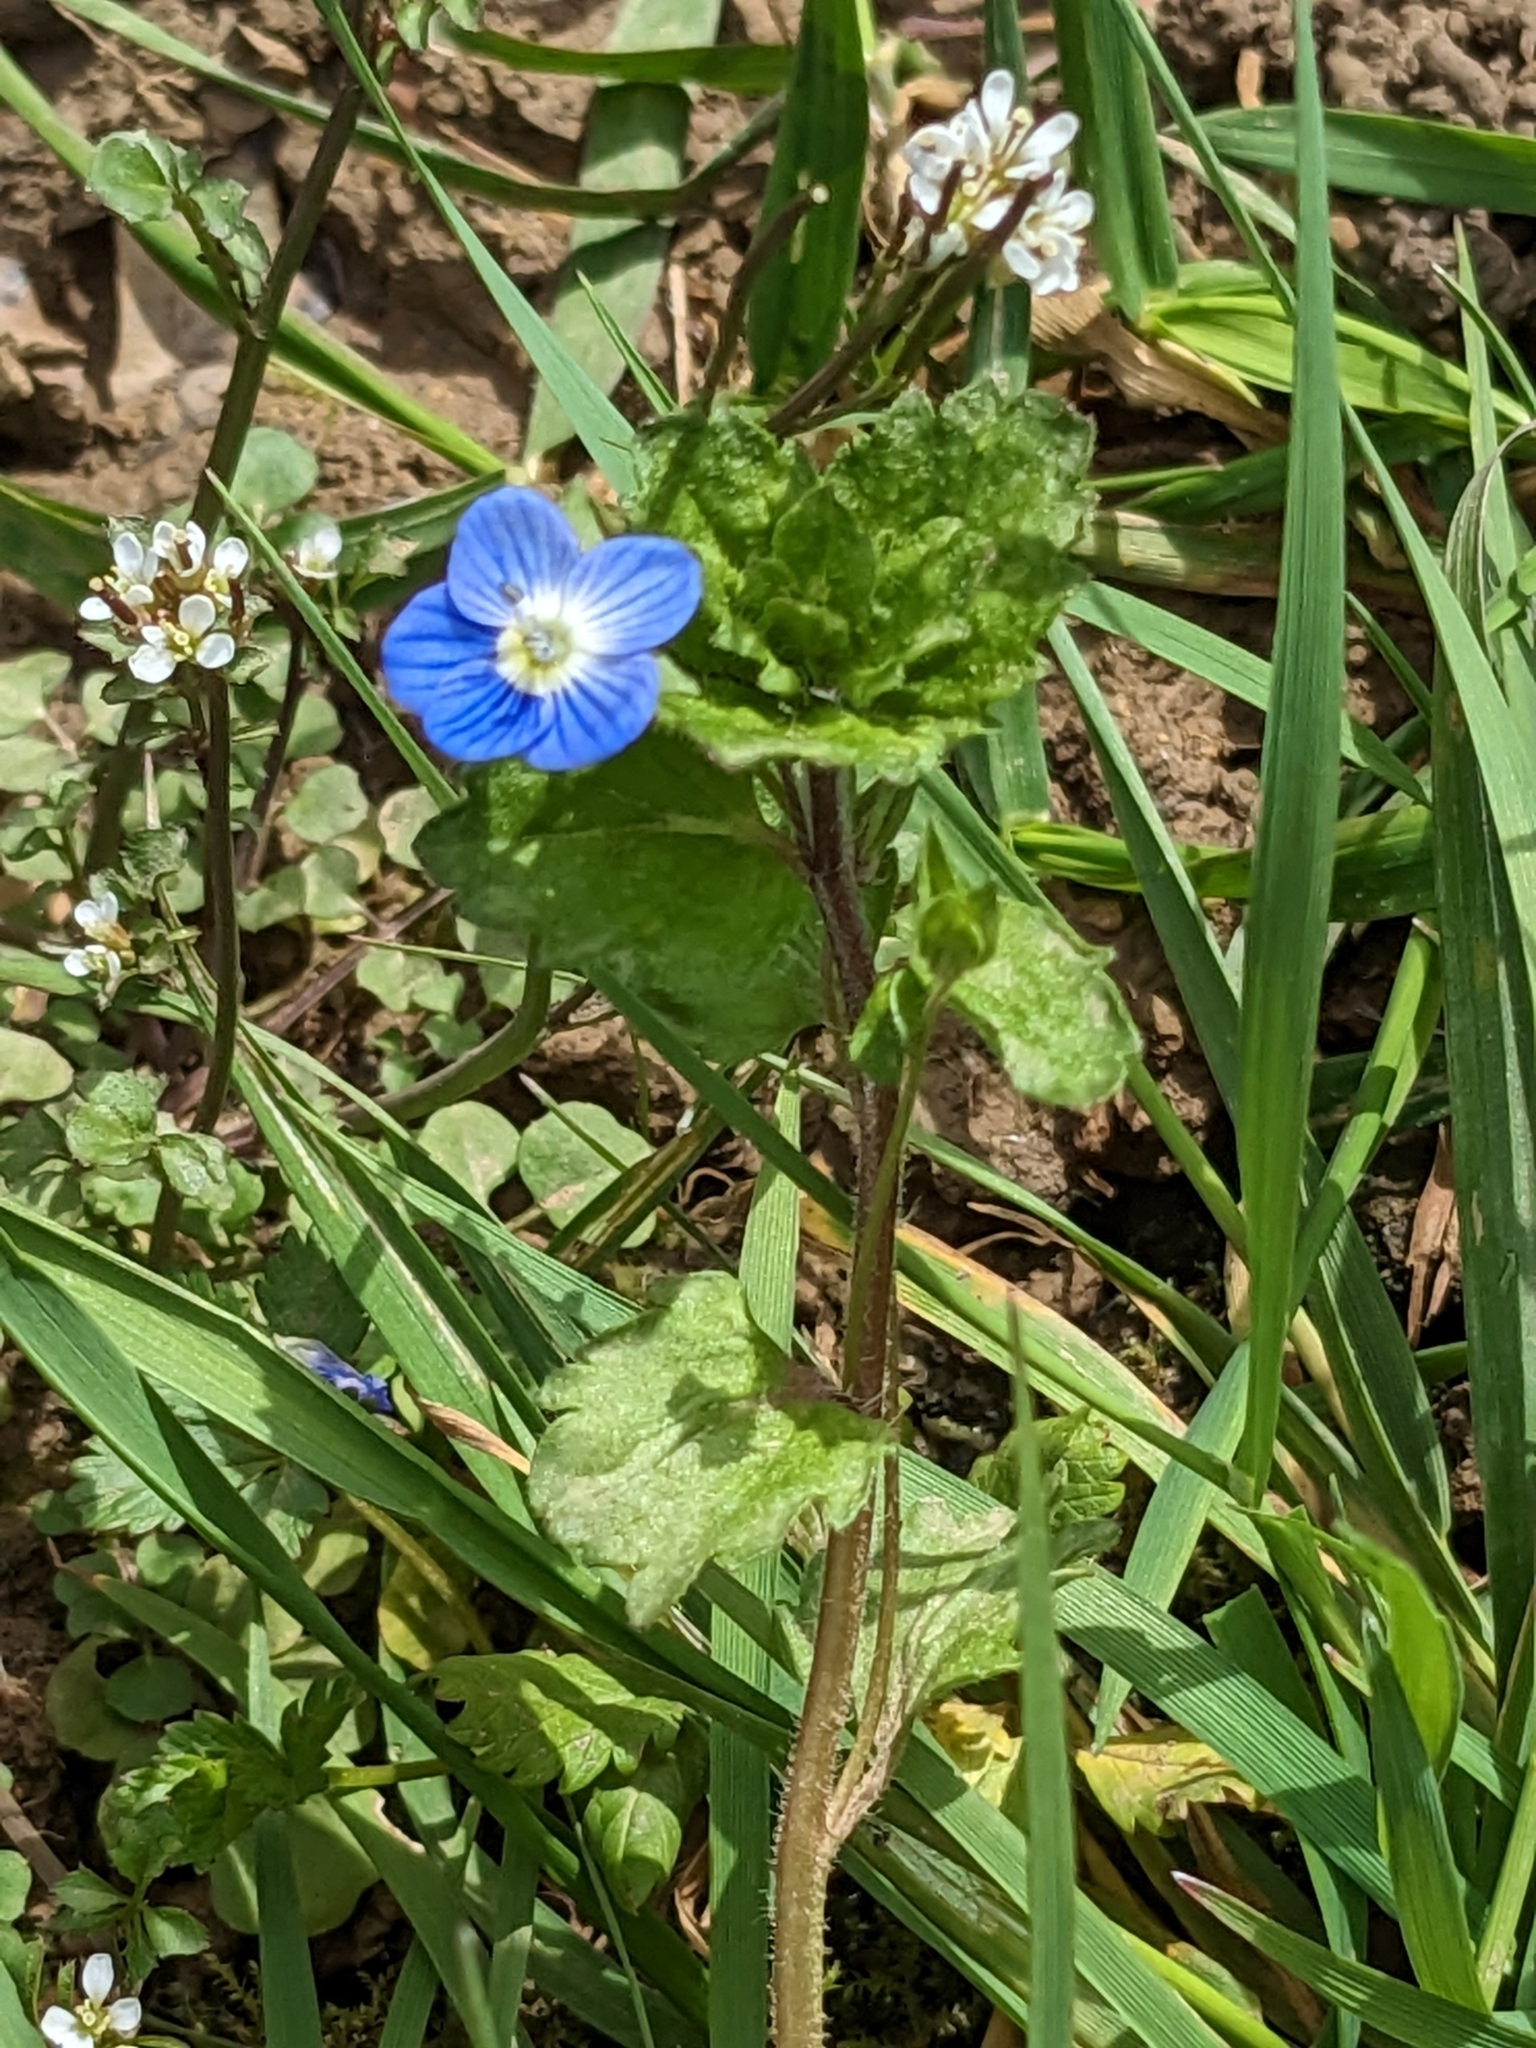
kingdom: Plantae
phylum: Tracheophyta
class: Magnoliopsida
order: Lamiales
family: Plantaginaceae
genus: Veronica
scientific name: Veronica persica
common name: Common field-speedwell
